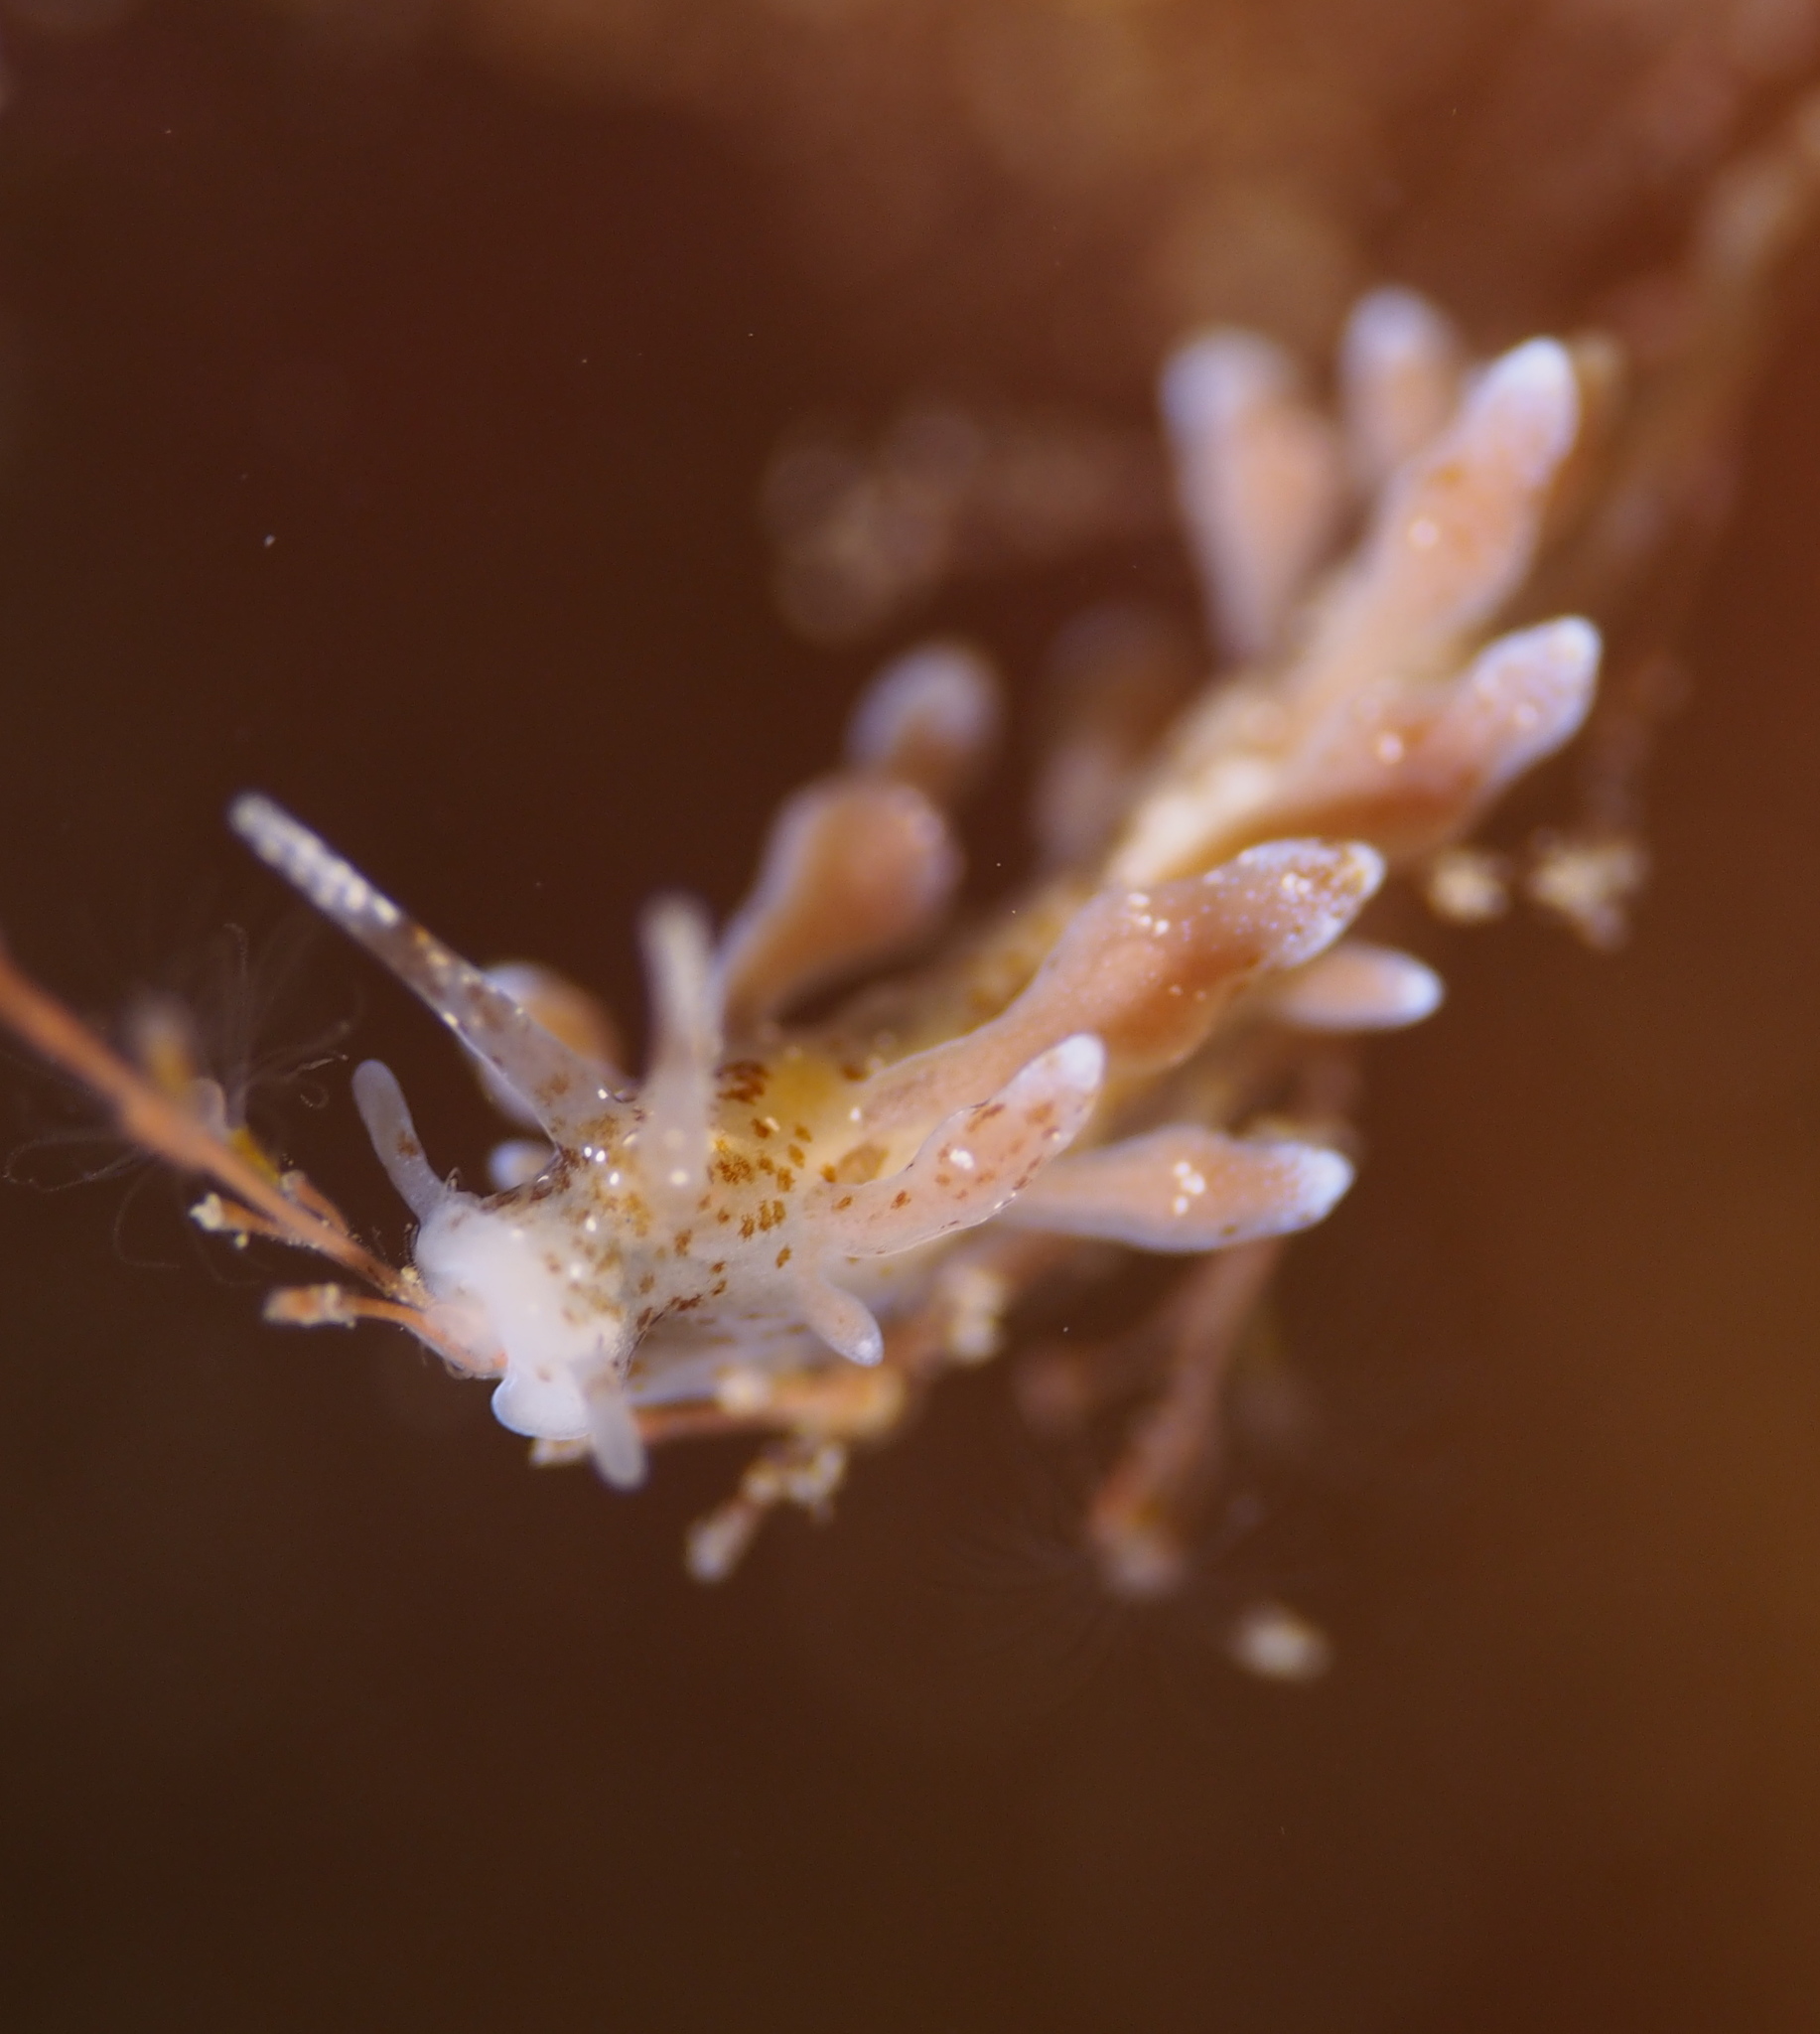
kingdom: Animalia
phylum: Mollusca
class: Gastropoda
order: Nudibranchia
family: Eubranchidae
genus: Eubranchus
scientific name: Eubranchus rupium
